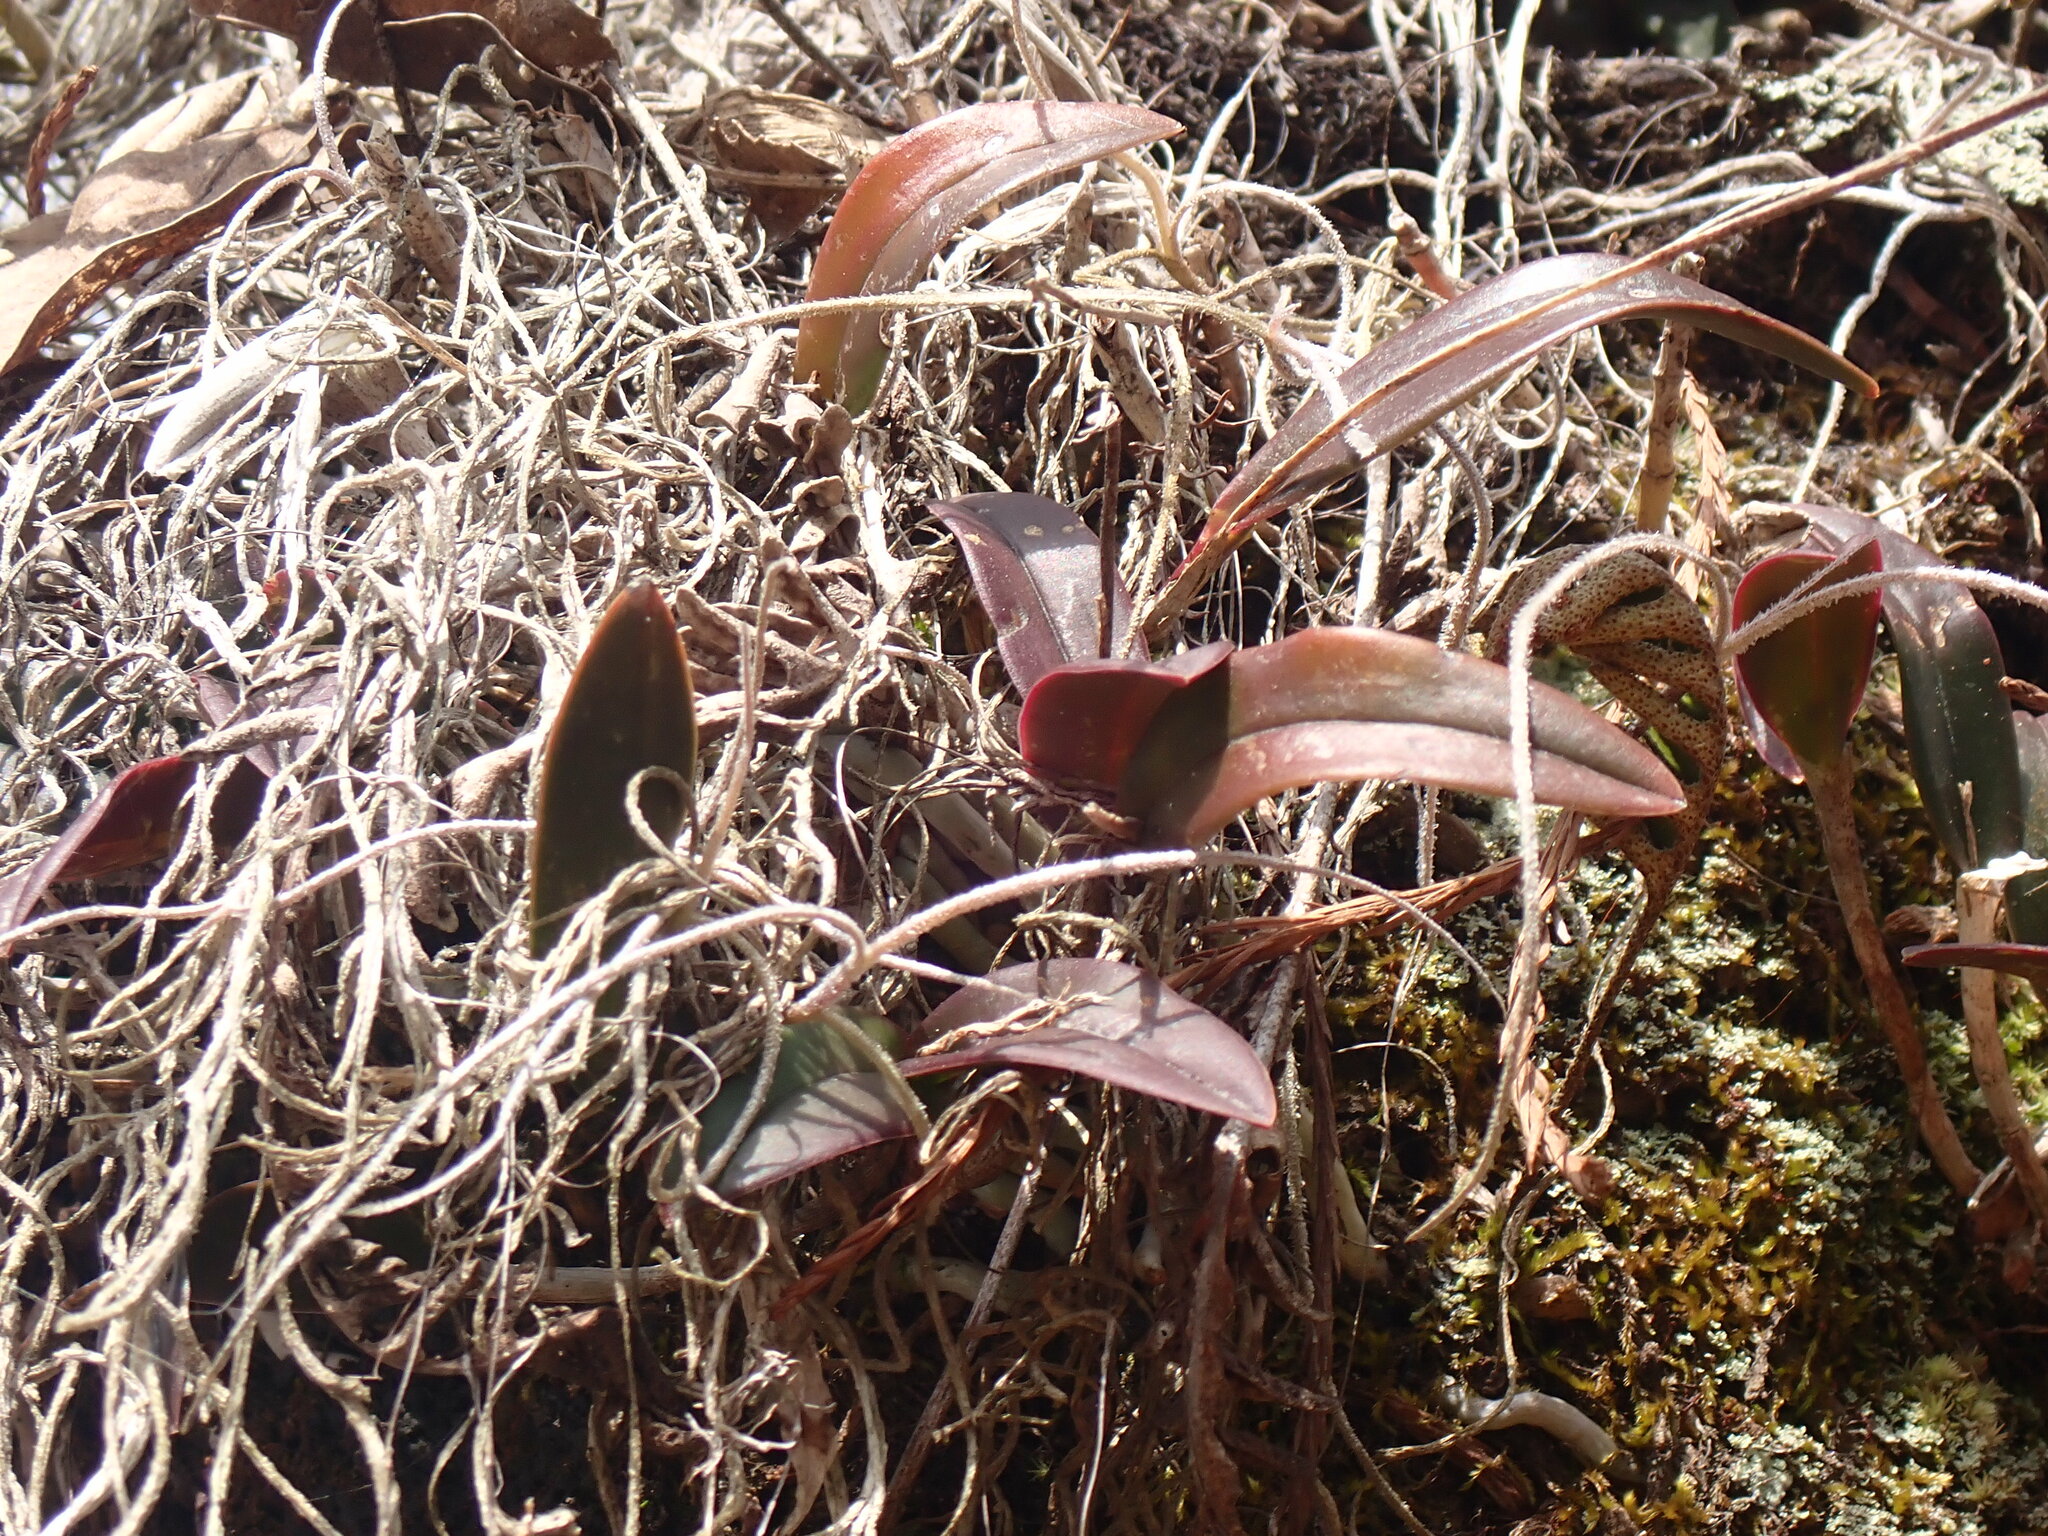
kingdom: Plantae
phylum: Tracheophyta
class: Liliopsida
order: Asparagales
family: Orchidaceae
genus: Epidendrum
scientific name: Epidendrum conopseum
